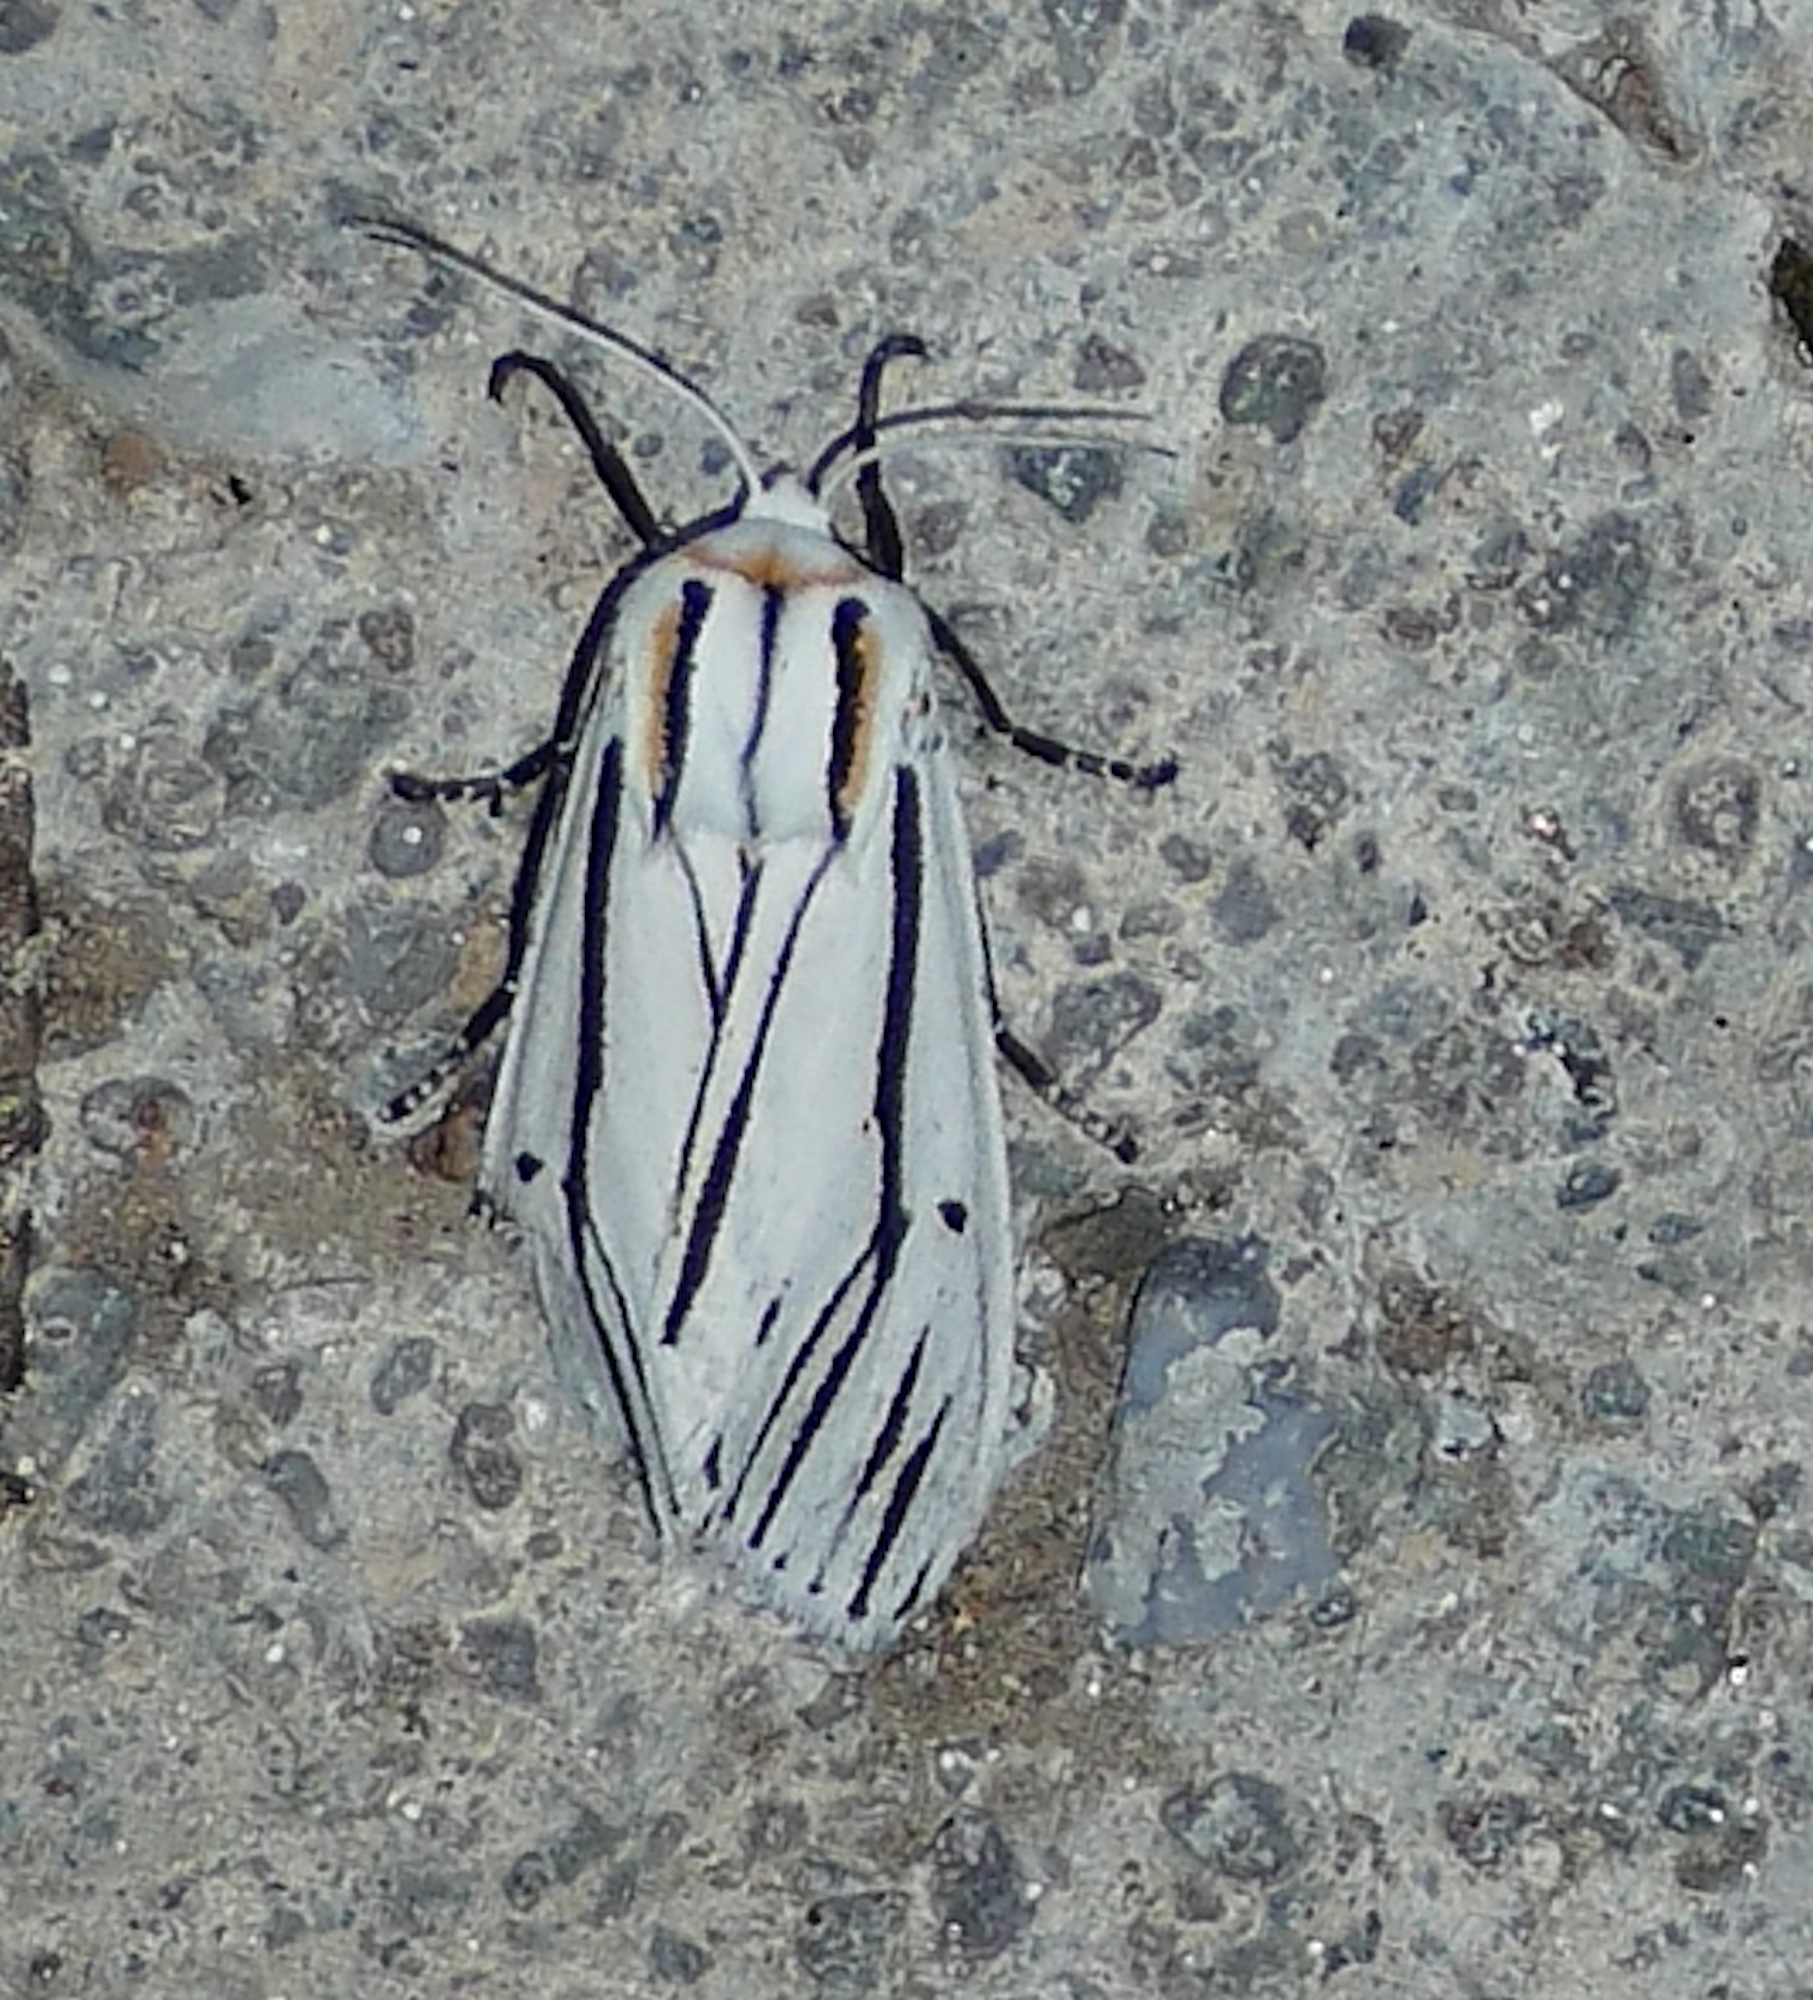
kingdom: Animalia
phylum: Arthropoda
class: Insecta
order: Lepidoptera
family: Erebidae
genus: Ectypia
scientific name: Ectypia clio
